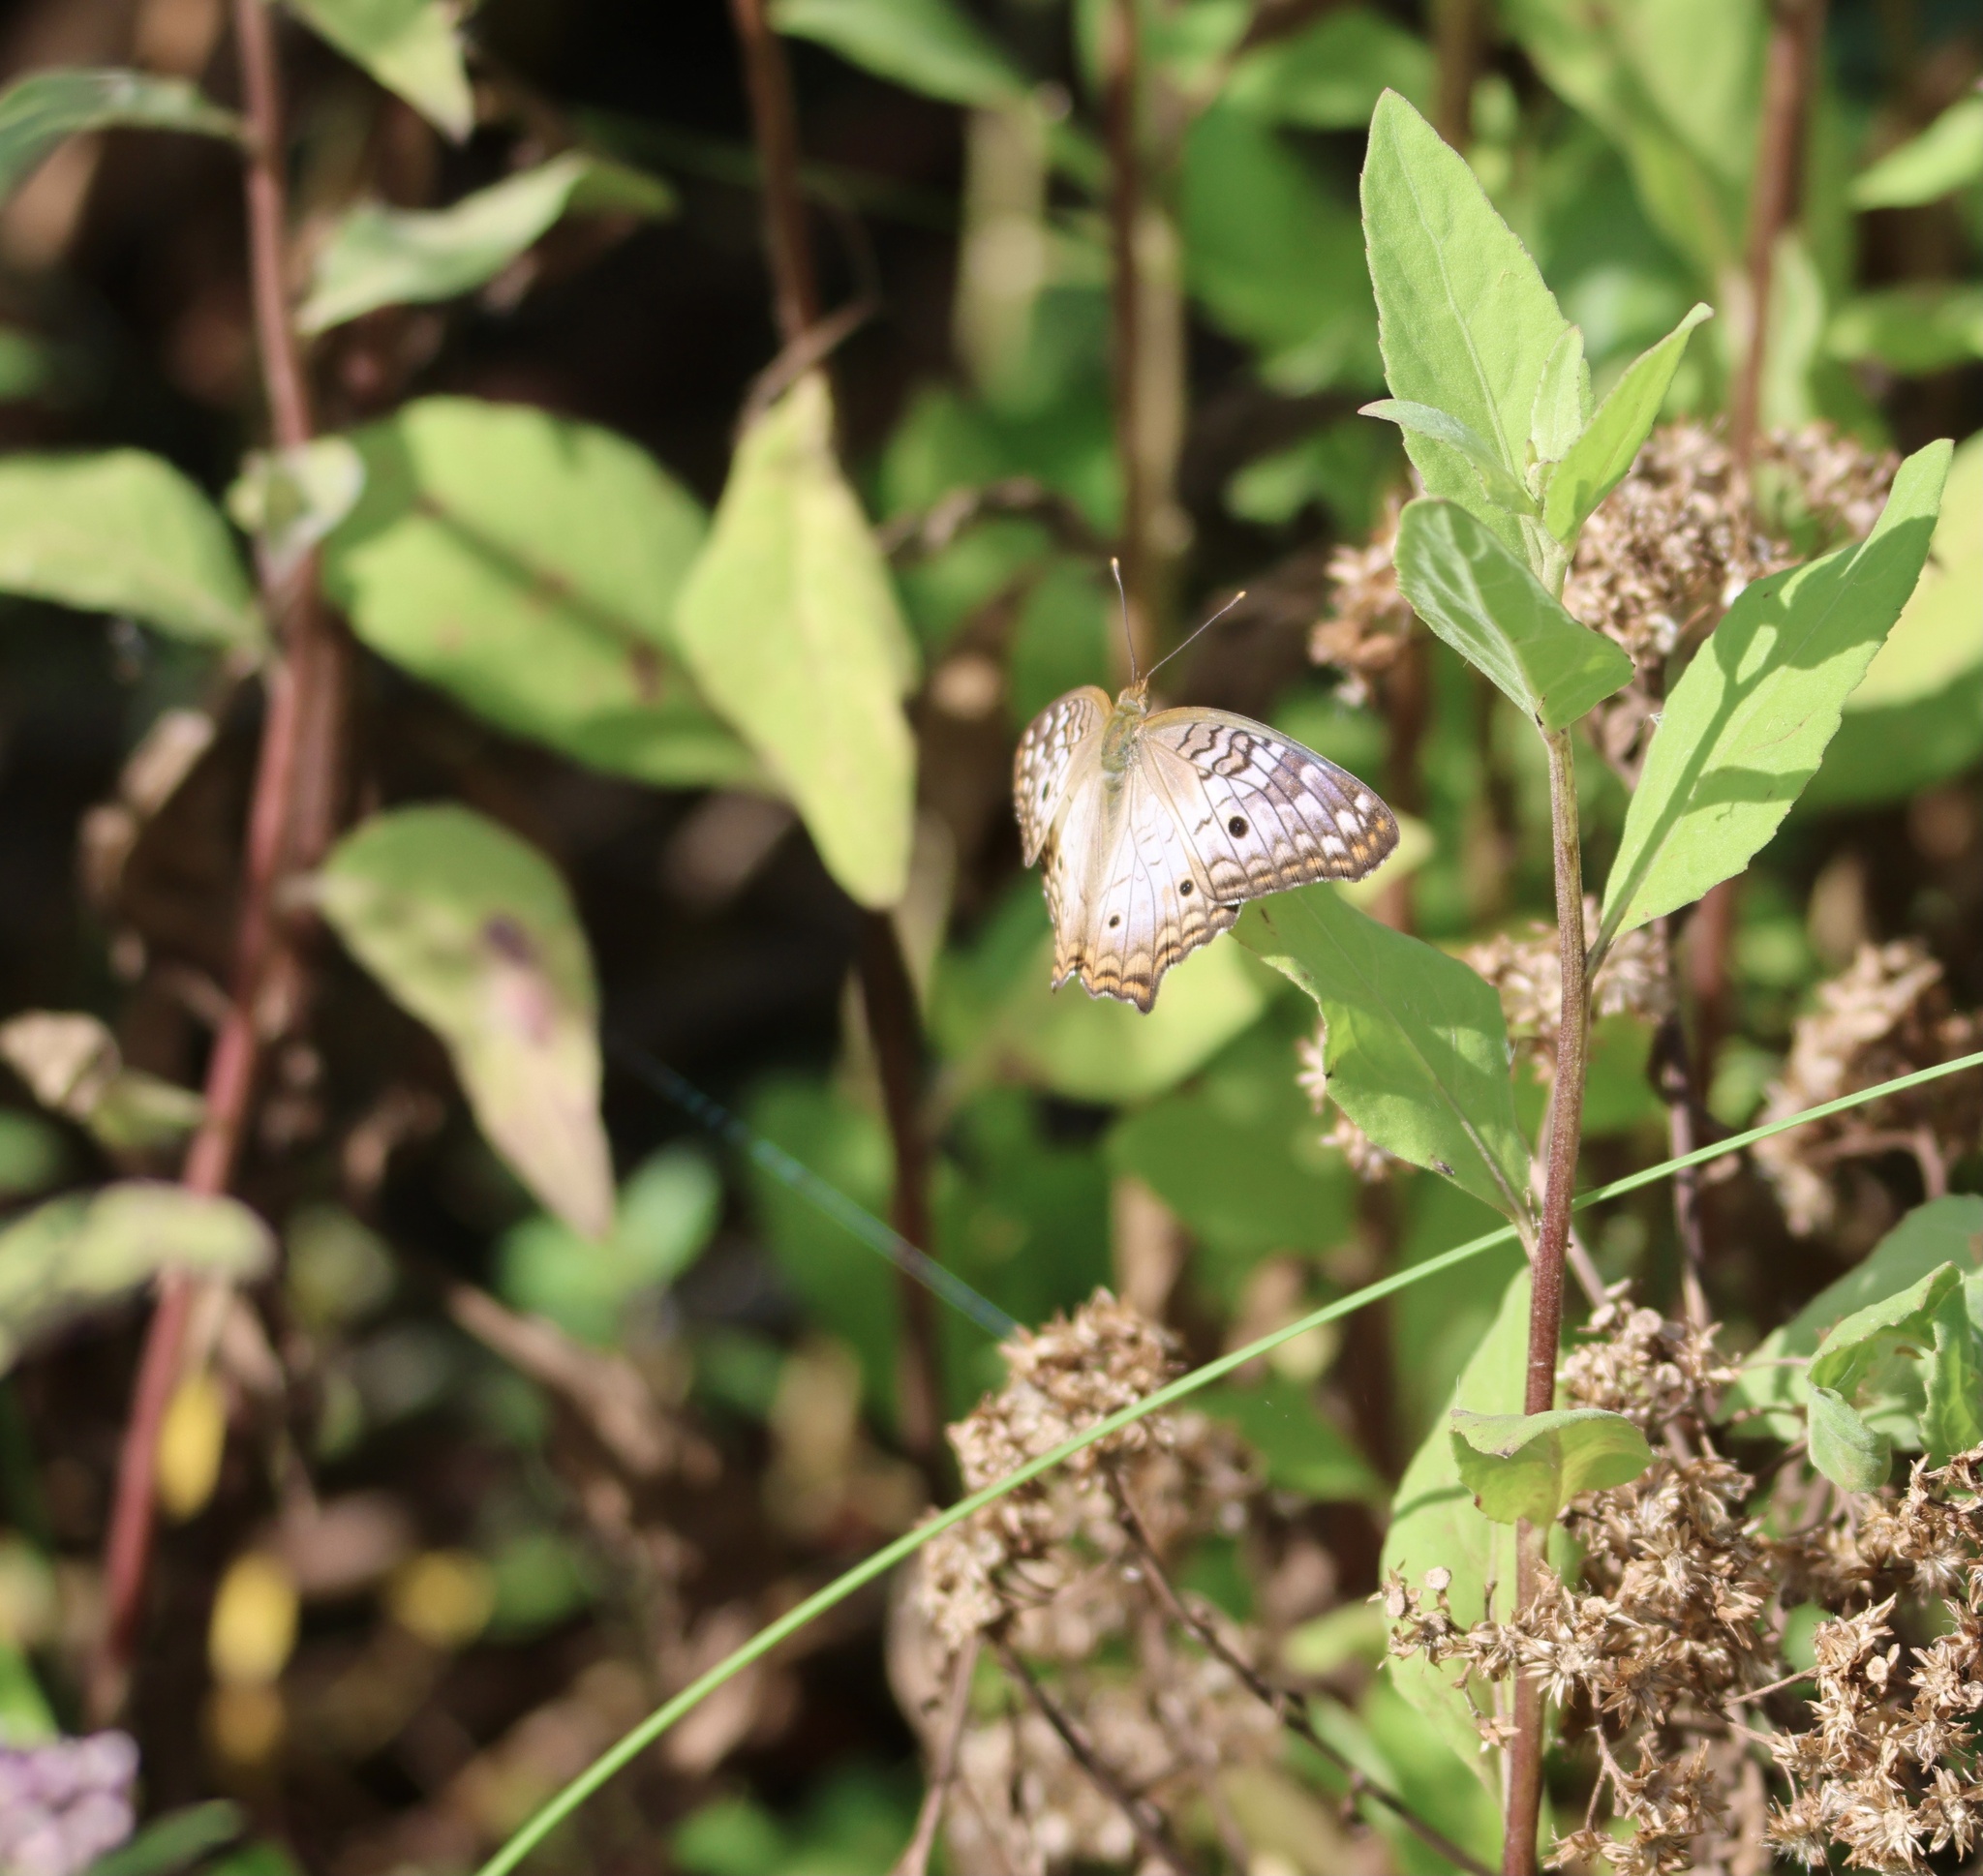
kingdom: Animalia
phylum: Arthropoda
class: Insecta
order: Lepidoptera
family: Nymphalidae
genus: Anartia
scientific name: Anartia jatrophae
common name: White peacock
